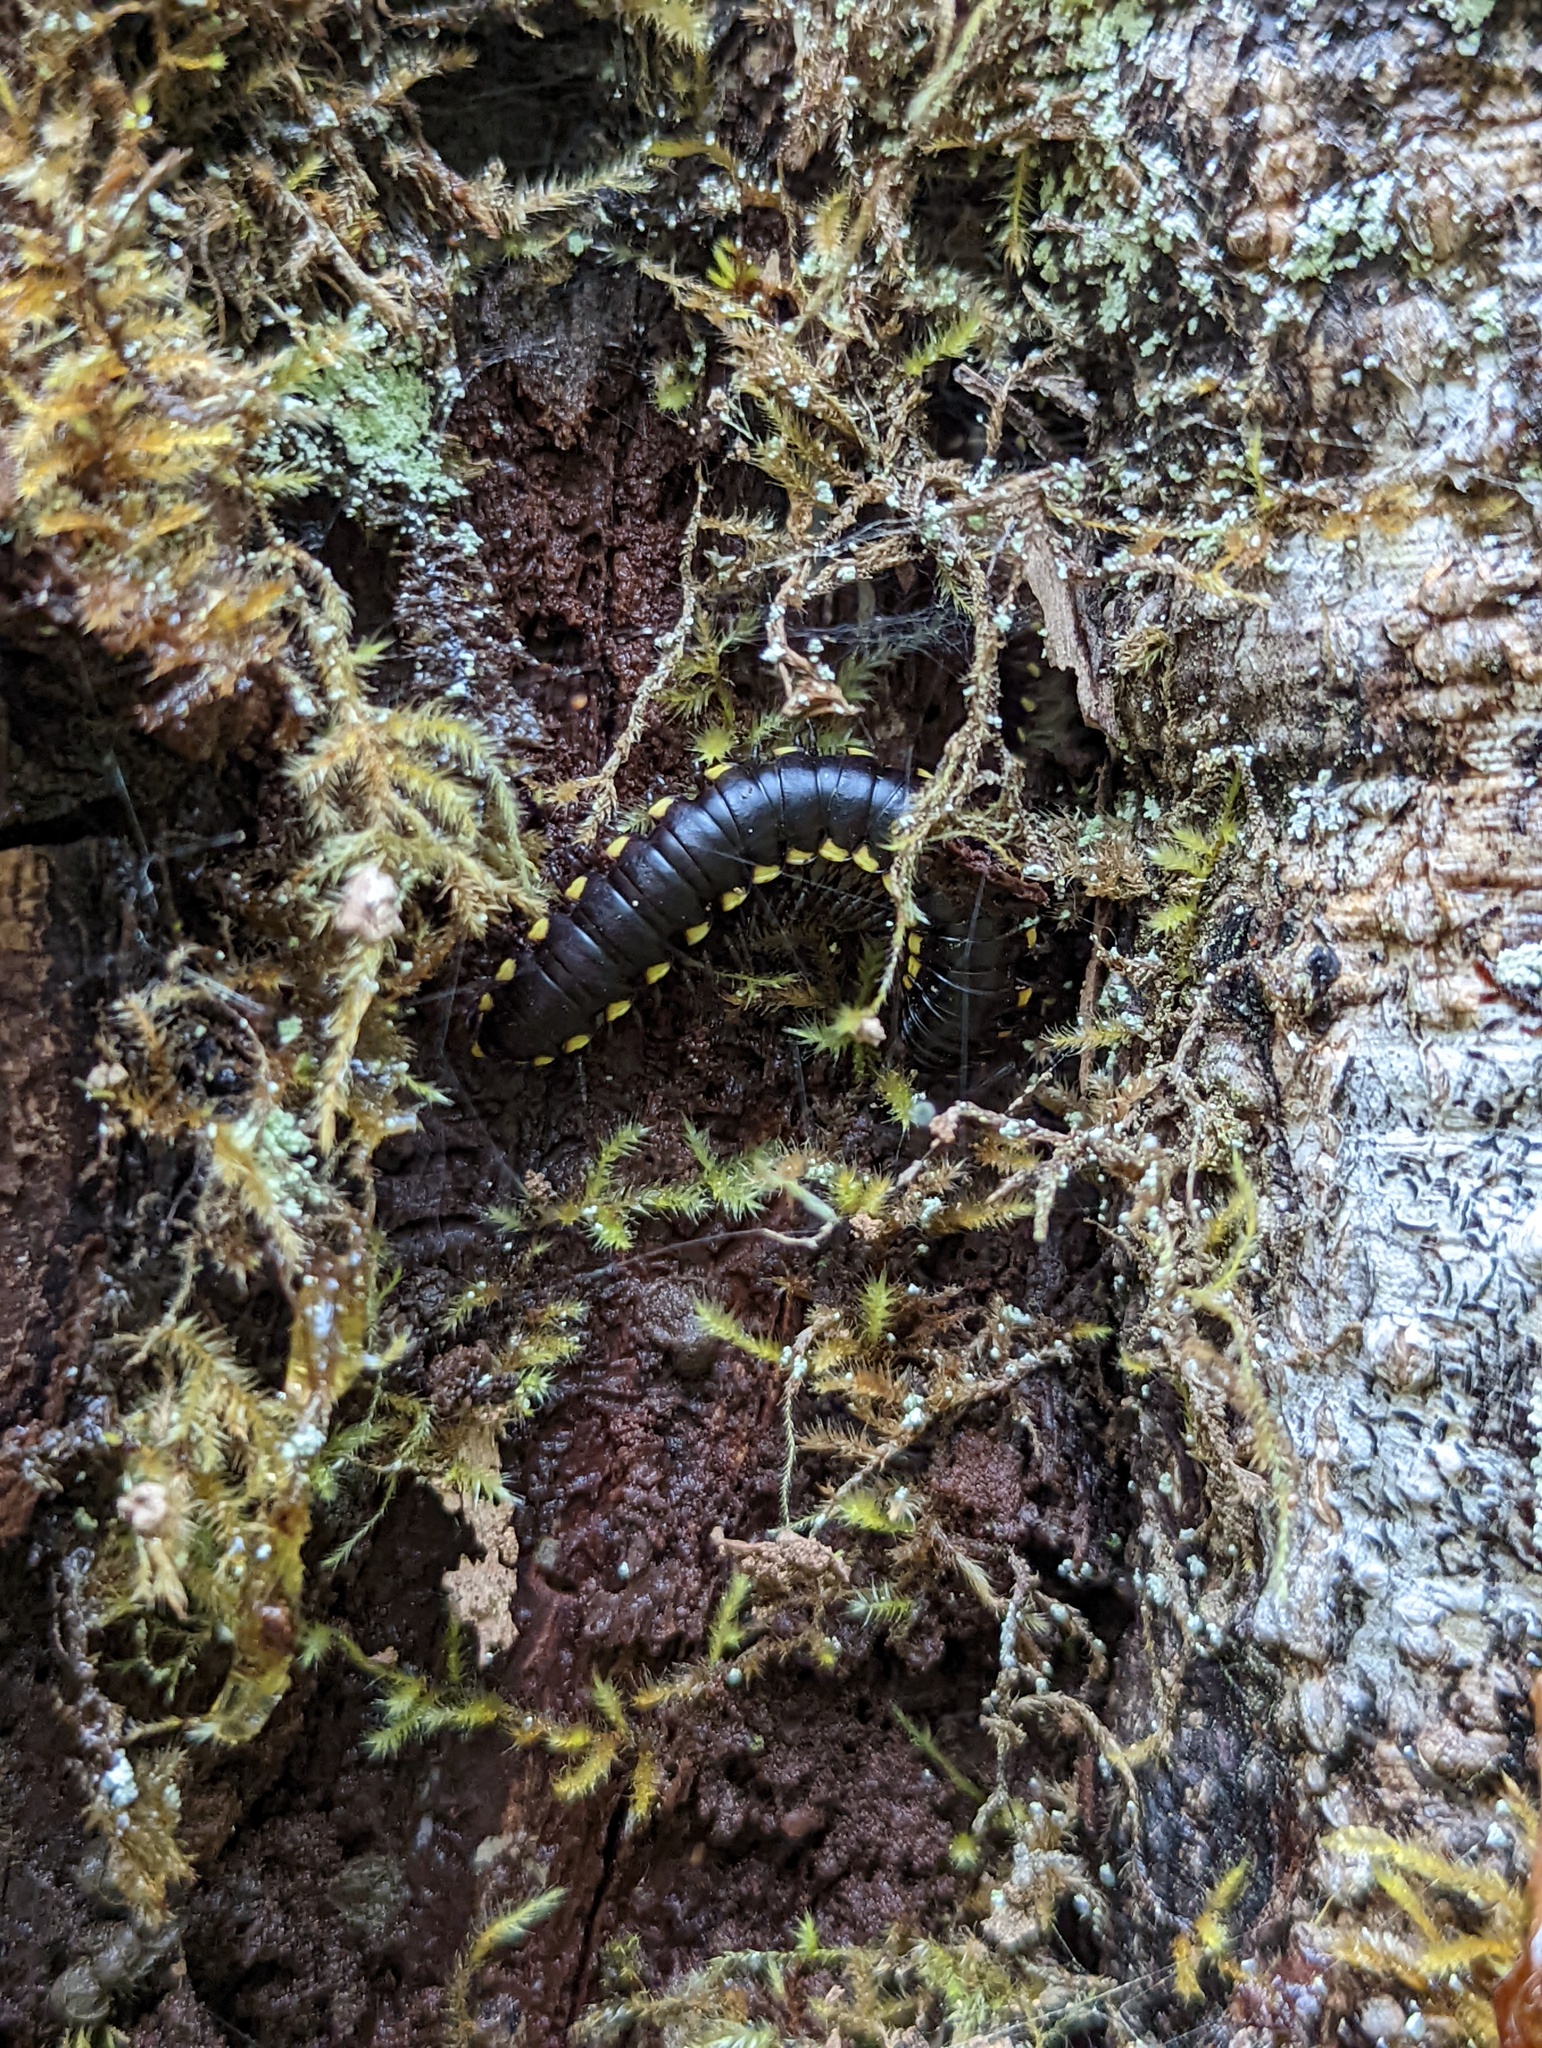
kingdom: Animalia
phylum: Arthropoda
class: Diplopoda
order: Polydesmida
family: Xystodesmidae
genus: Harpaphe
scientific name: Harpaphe haydeniana
